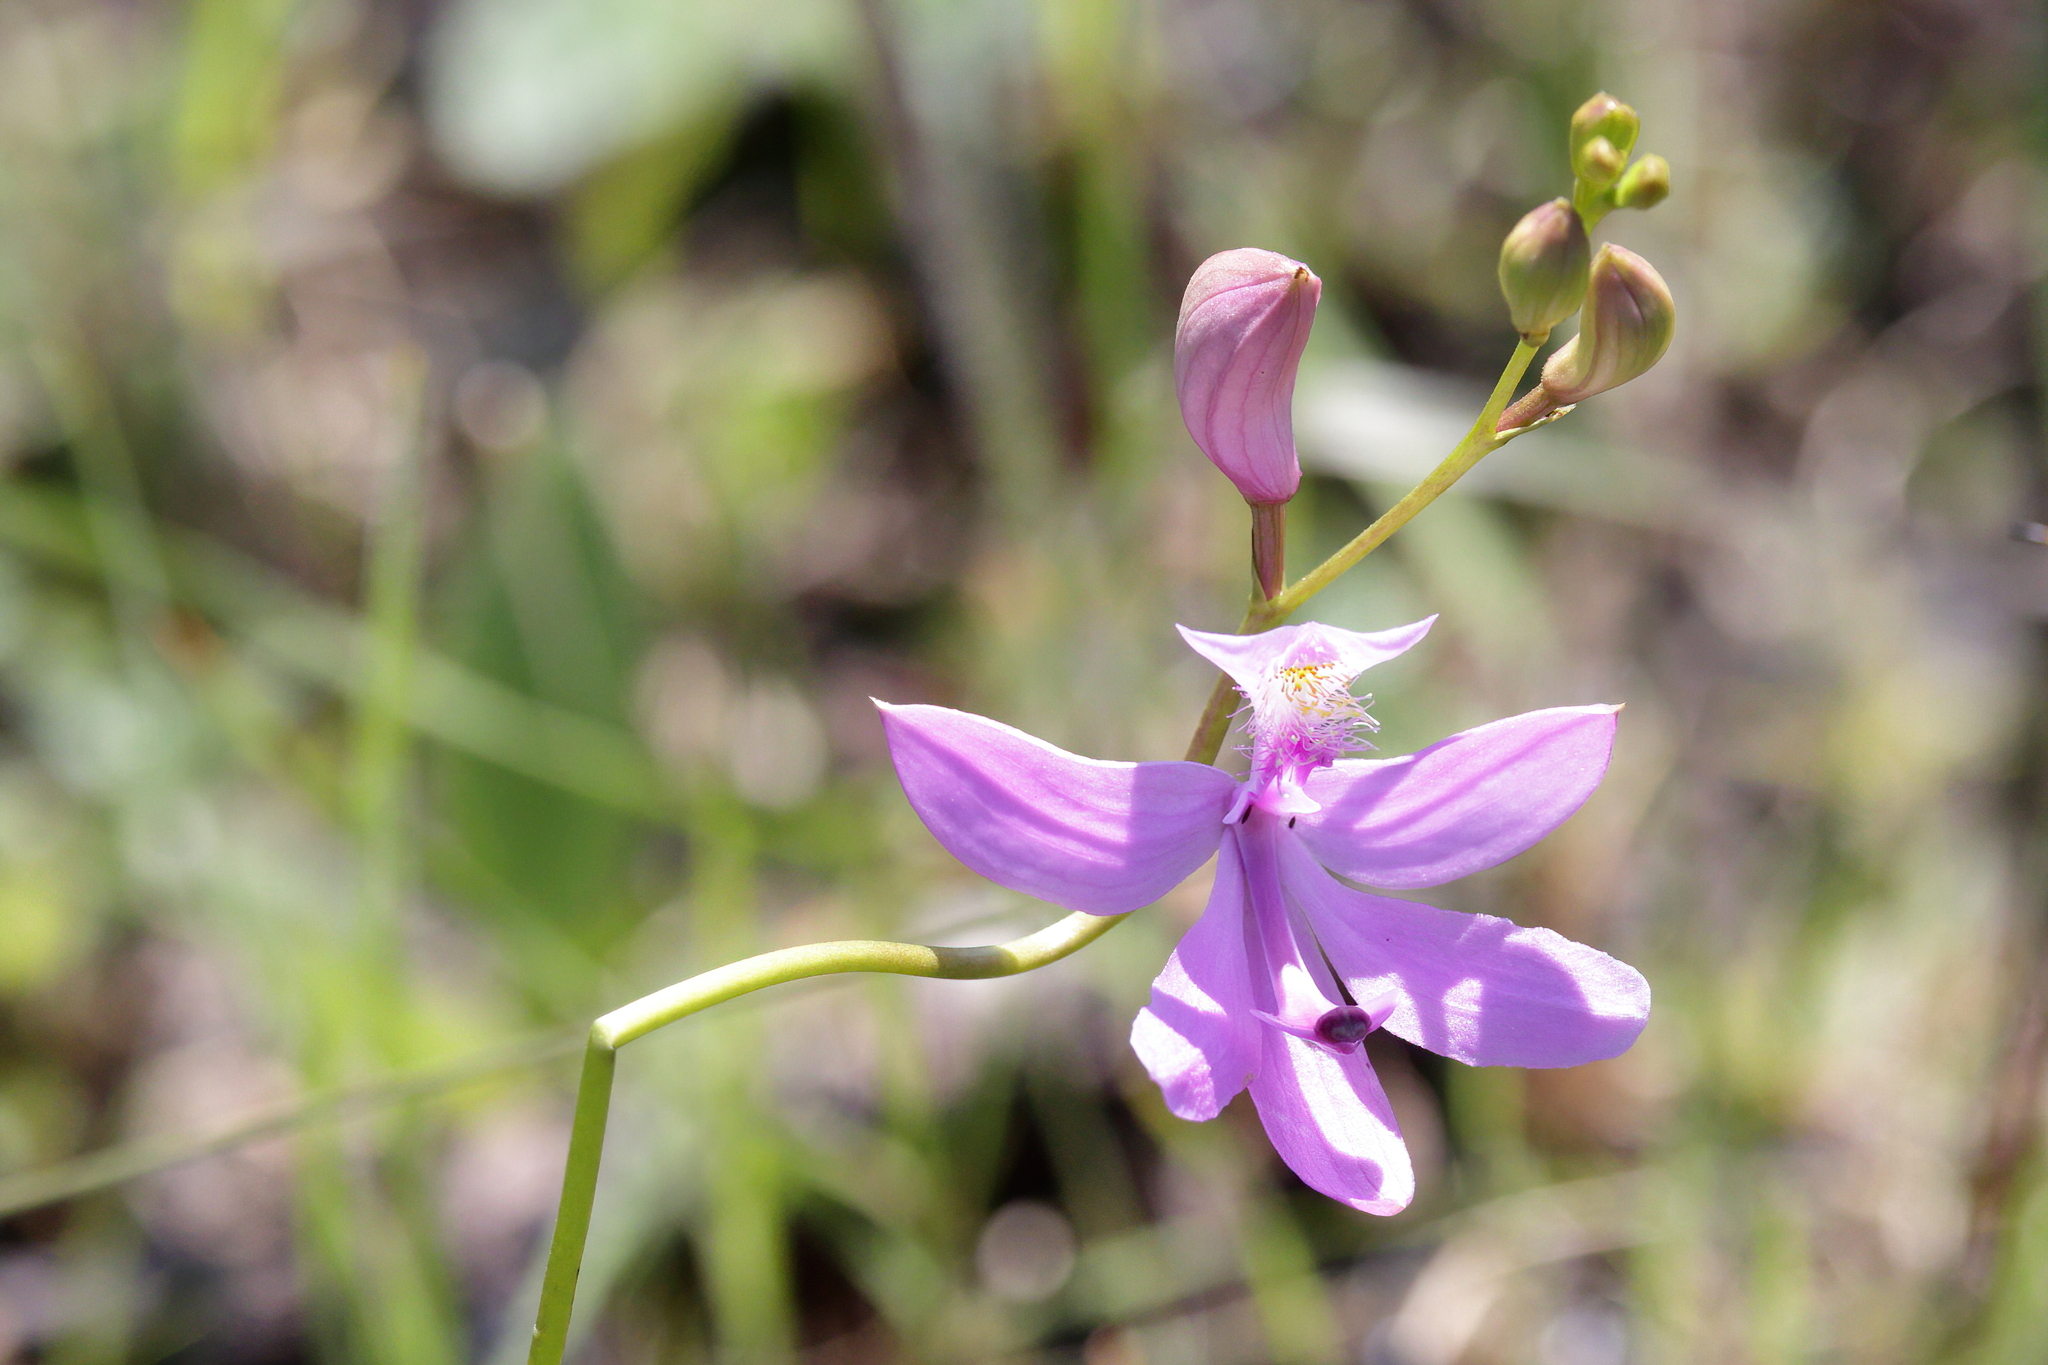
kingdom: Plantae
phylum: Tracheophyta
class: Liliopsida
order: Asparagales
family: Orchidaceae
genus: Calopogon
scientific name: Calopogon tuberosus
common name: Grass-pink
